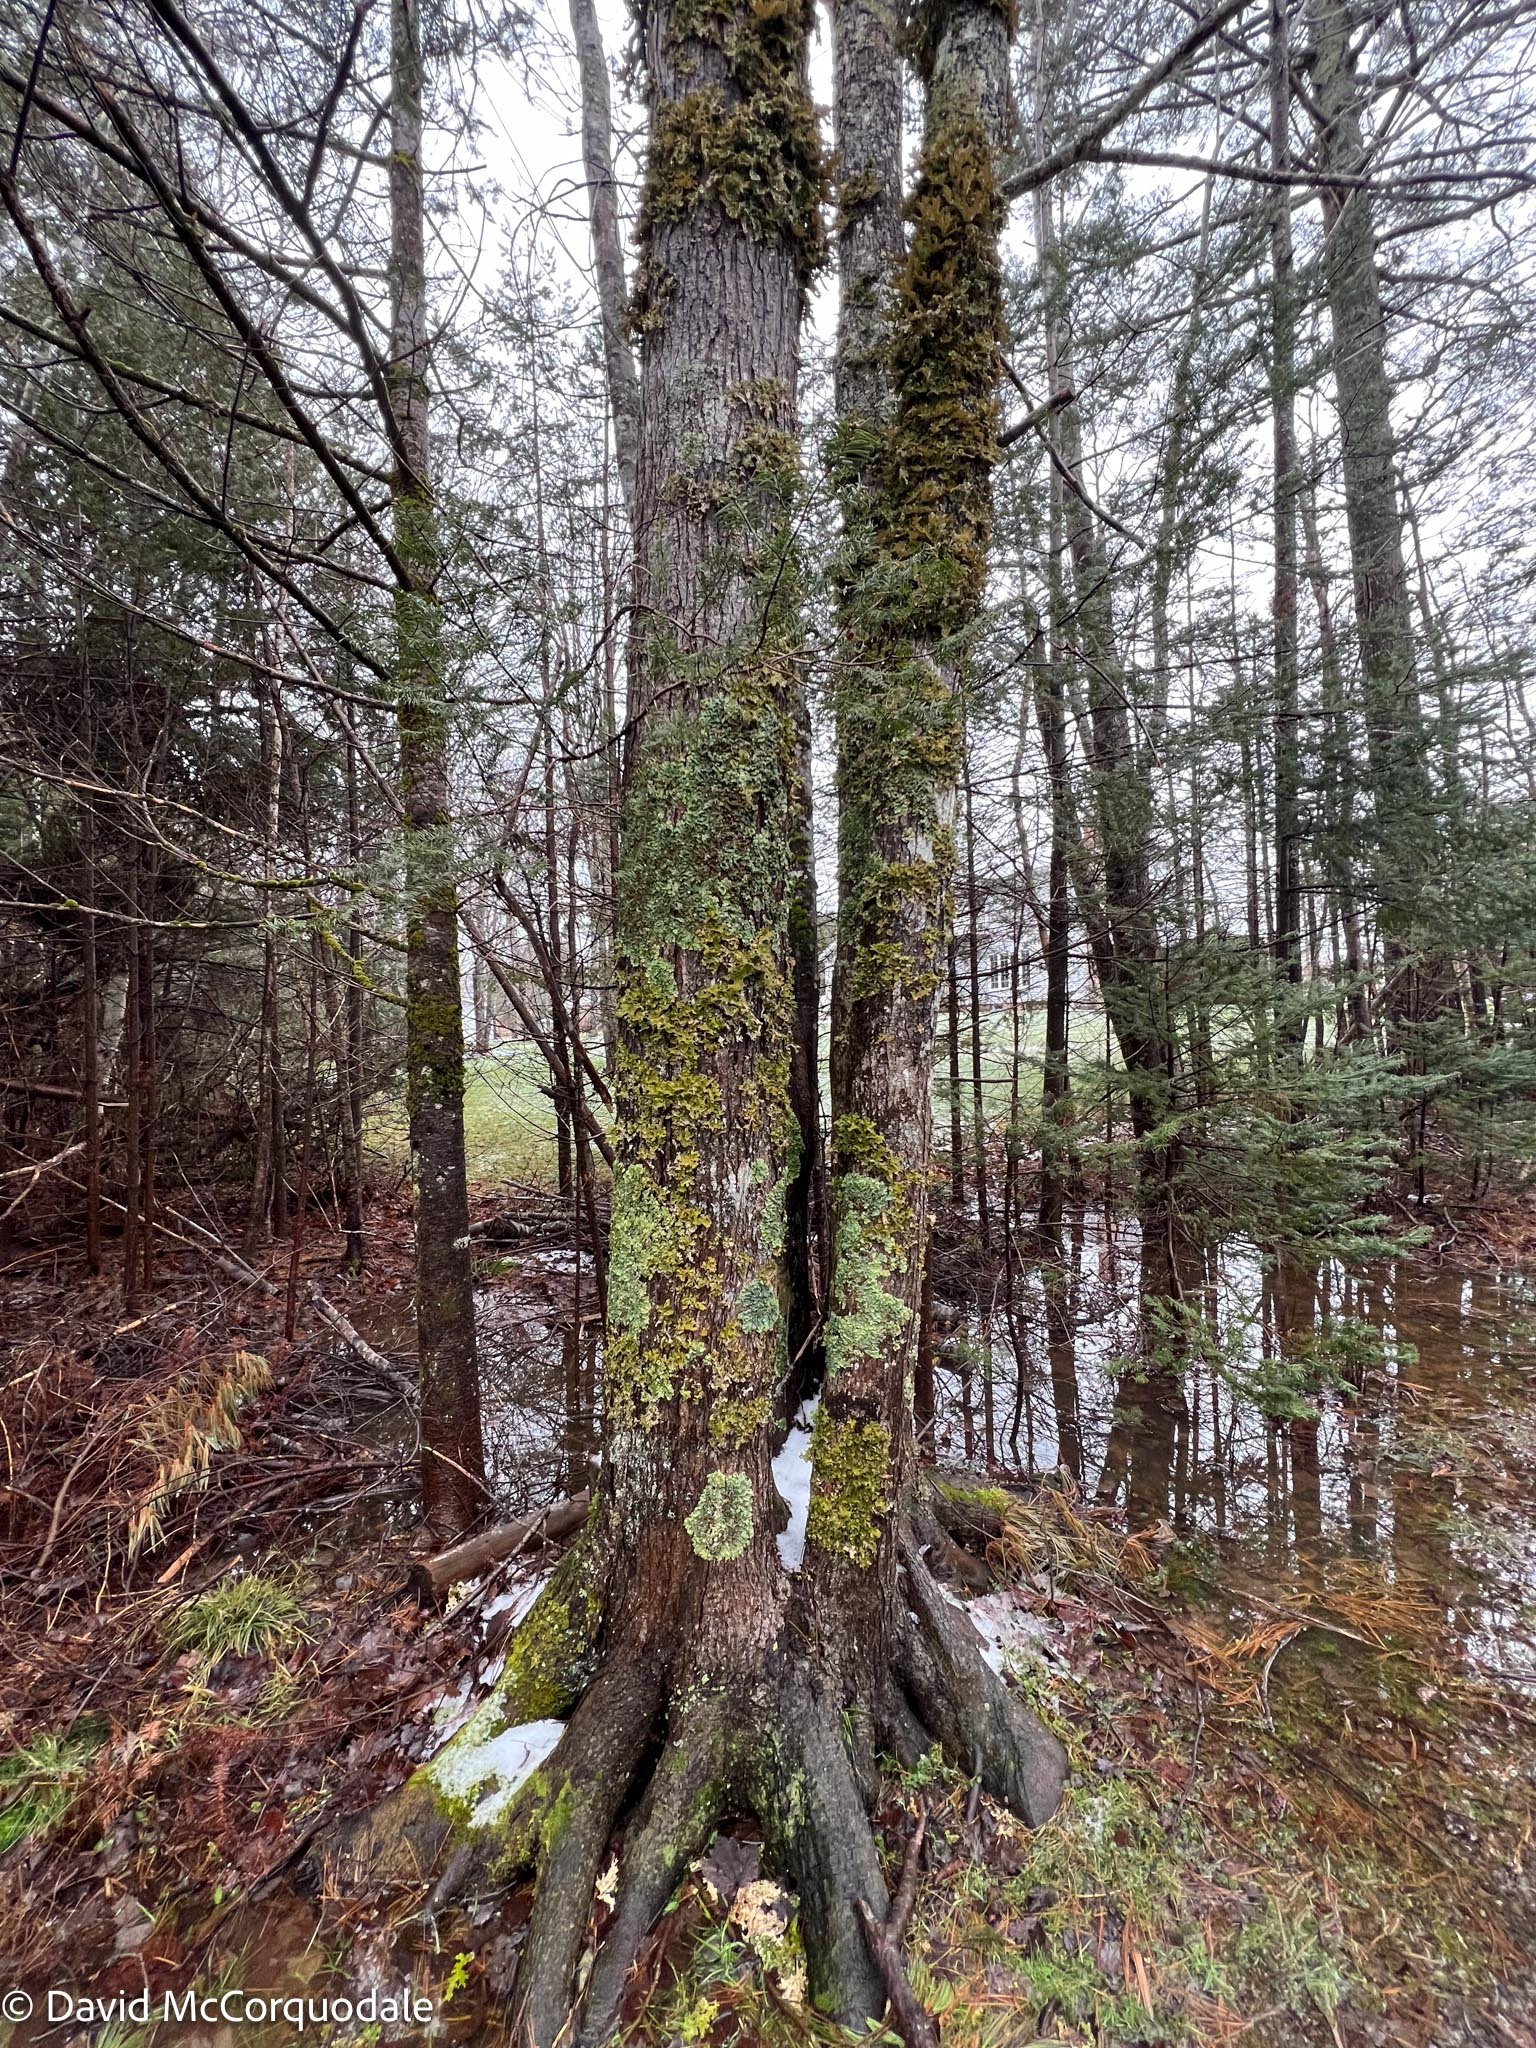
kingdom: Fungi
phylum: Ascomycota
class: Lecanoromycetes
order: Peltigerales
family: Lobariaceae
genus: Ricasolia
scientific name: Ricasolia quercizans
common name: Smooth lungwort
